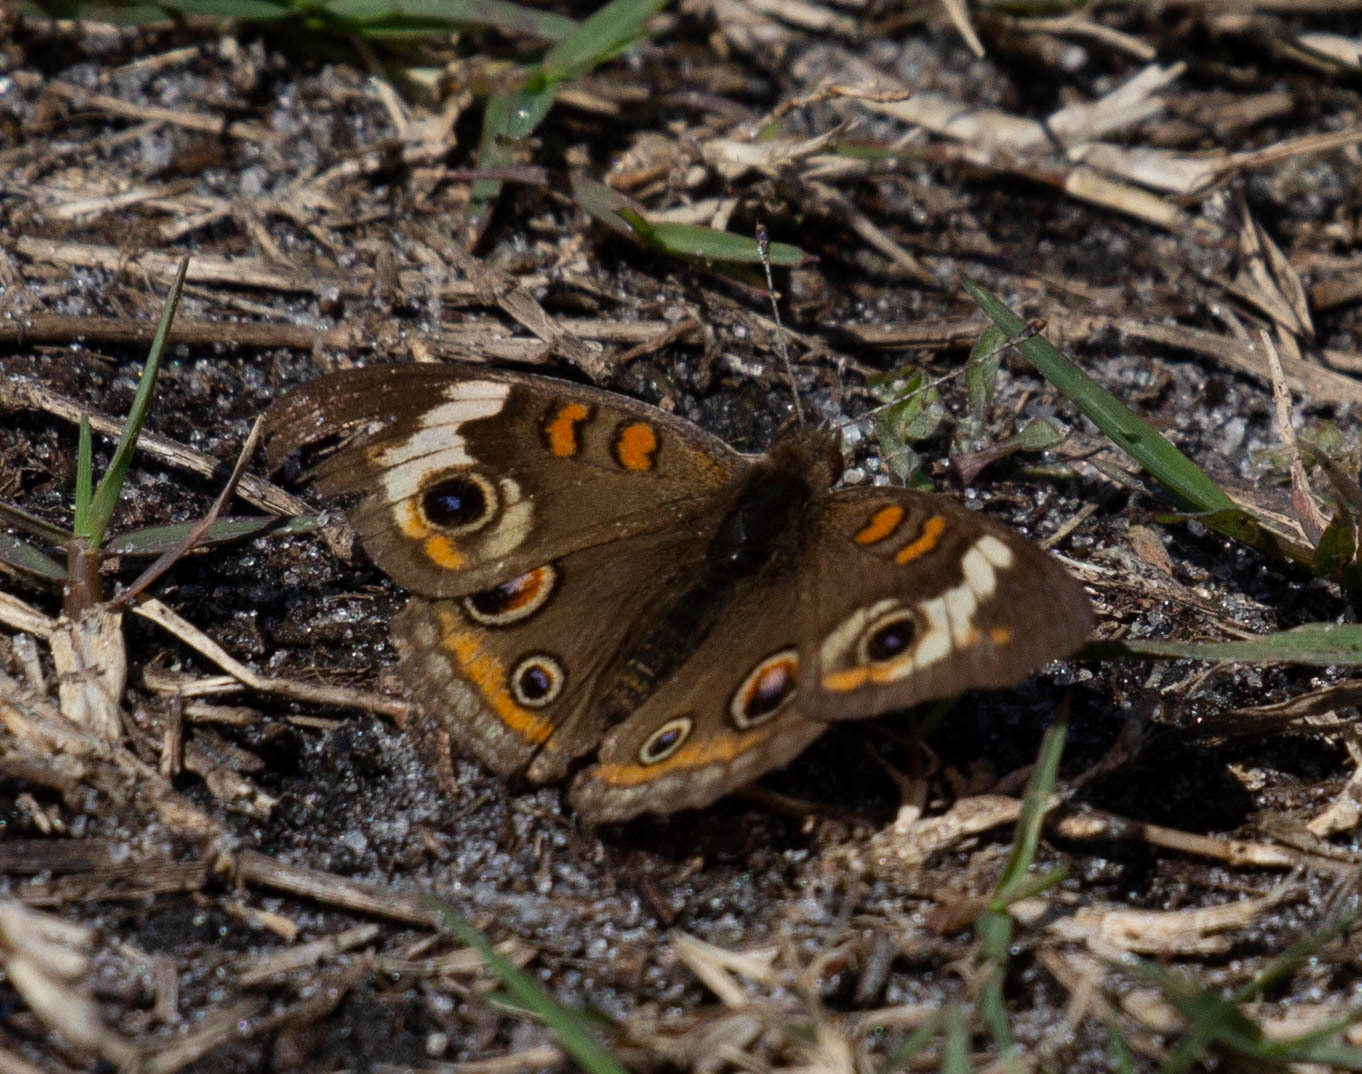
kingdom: Animalia
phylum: Arthropoda
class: Insecta
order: Lepidoptera
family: Nymphalidae
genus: Junonia
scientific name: Junonia coenia
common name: Common buckeye
